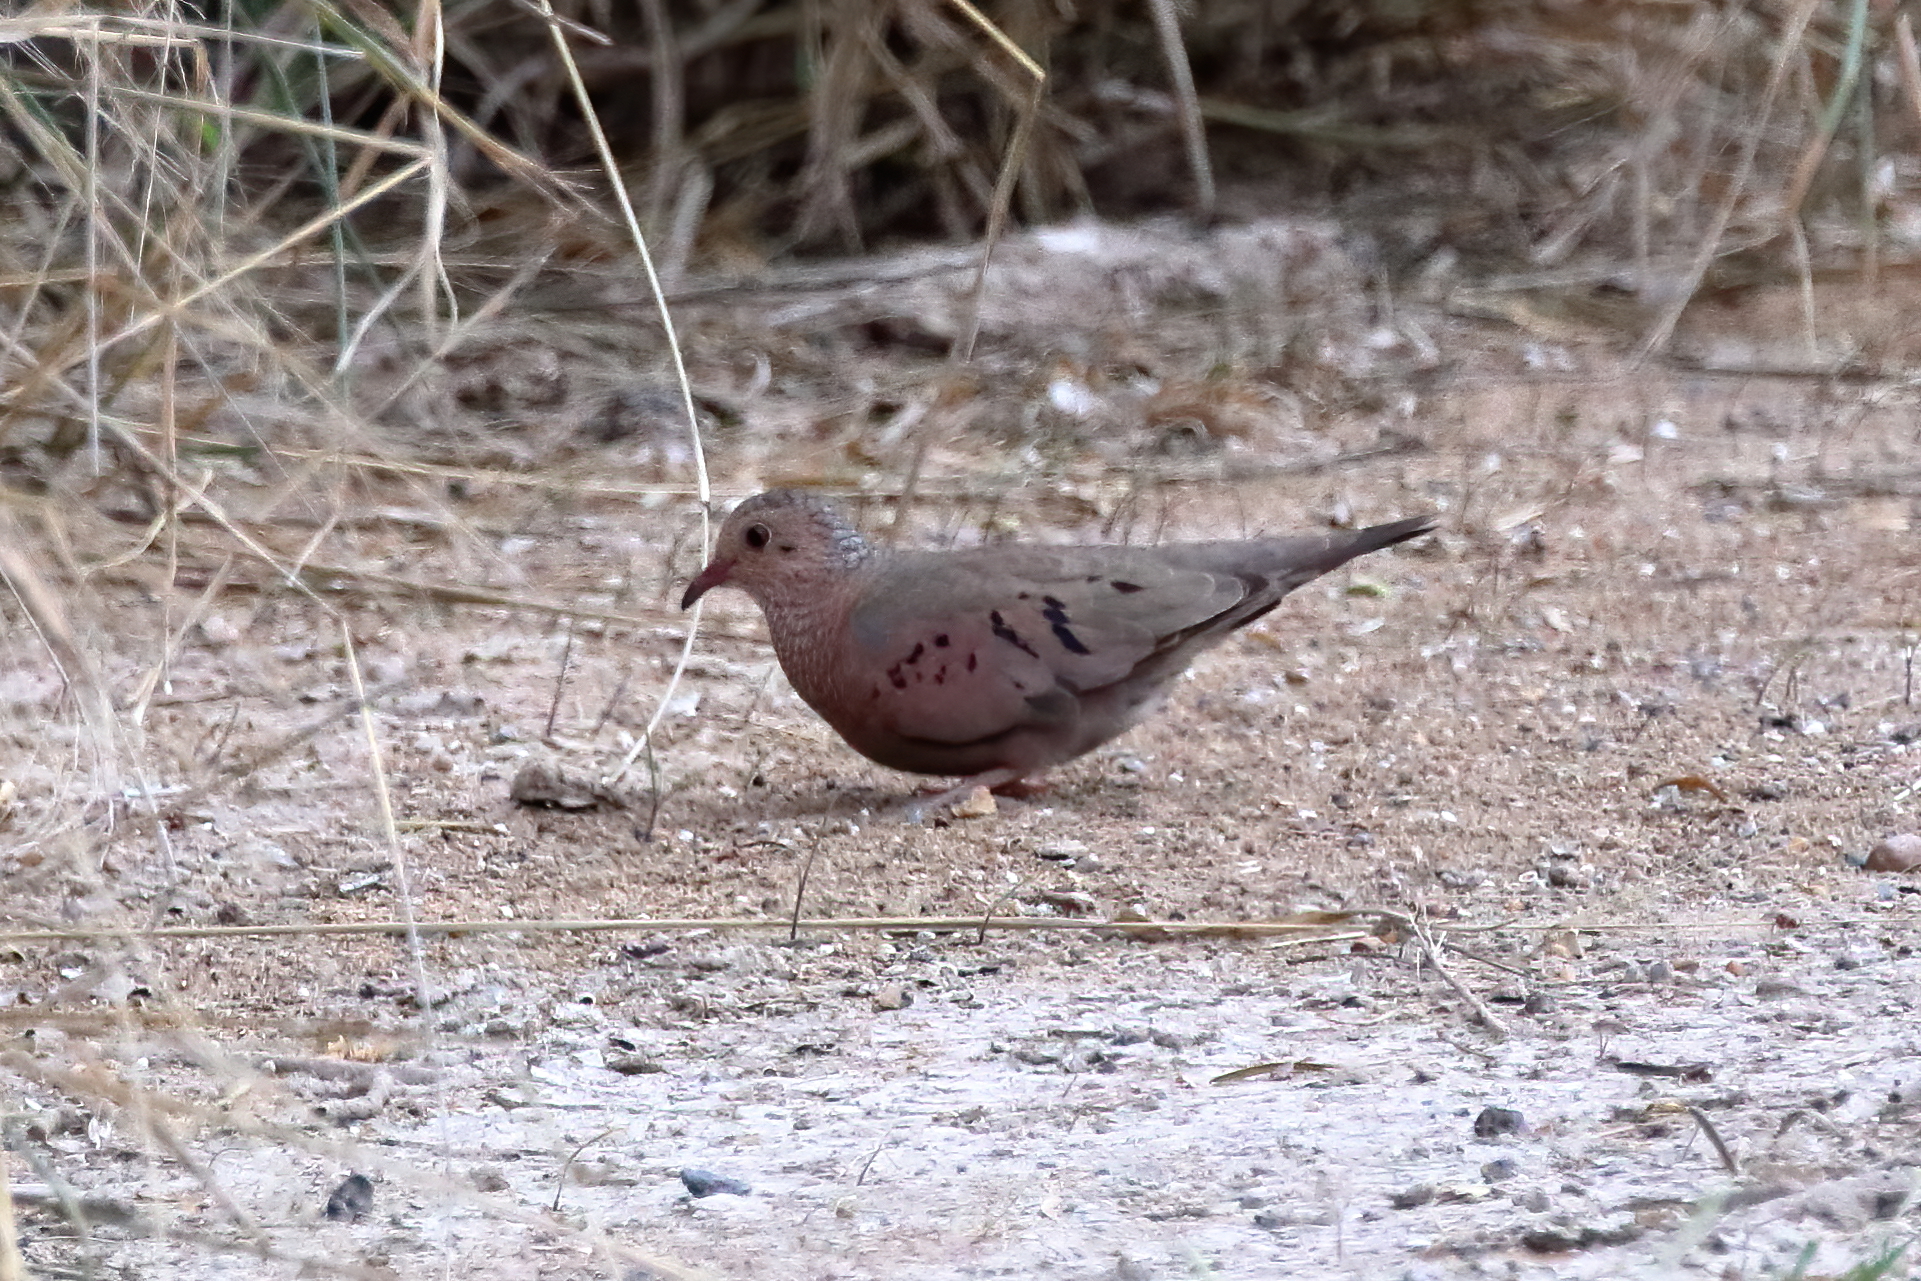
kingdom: Animalia
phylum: Chordata
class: Aves
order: Columbiformes
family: Columbidae
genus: Columbina
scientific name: Columbina passerina
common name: Common ground-dove
